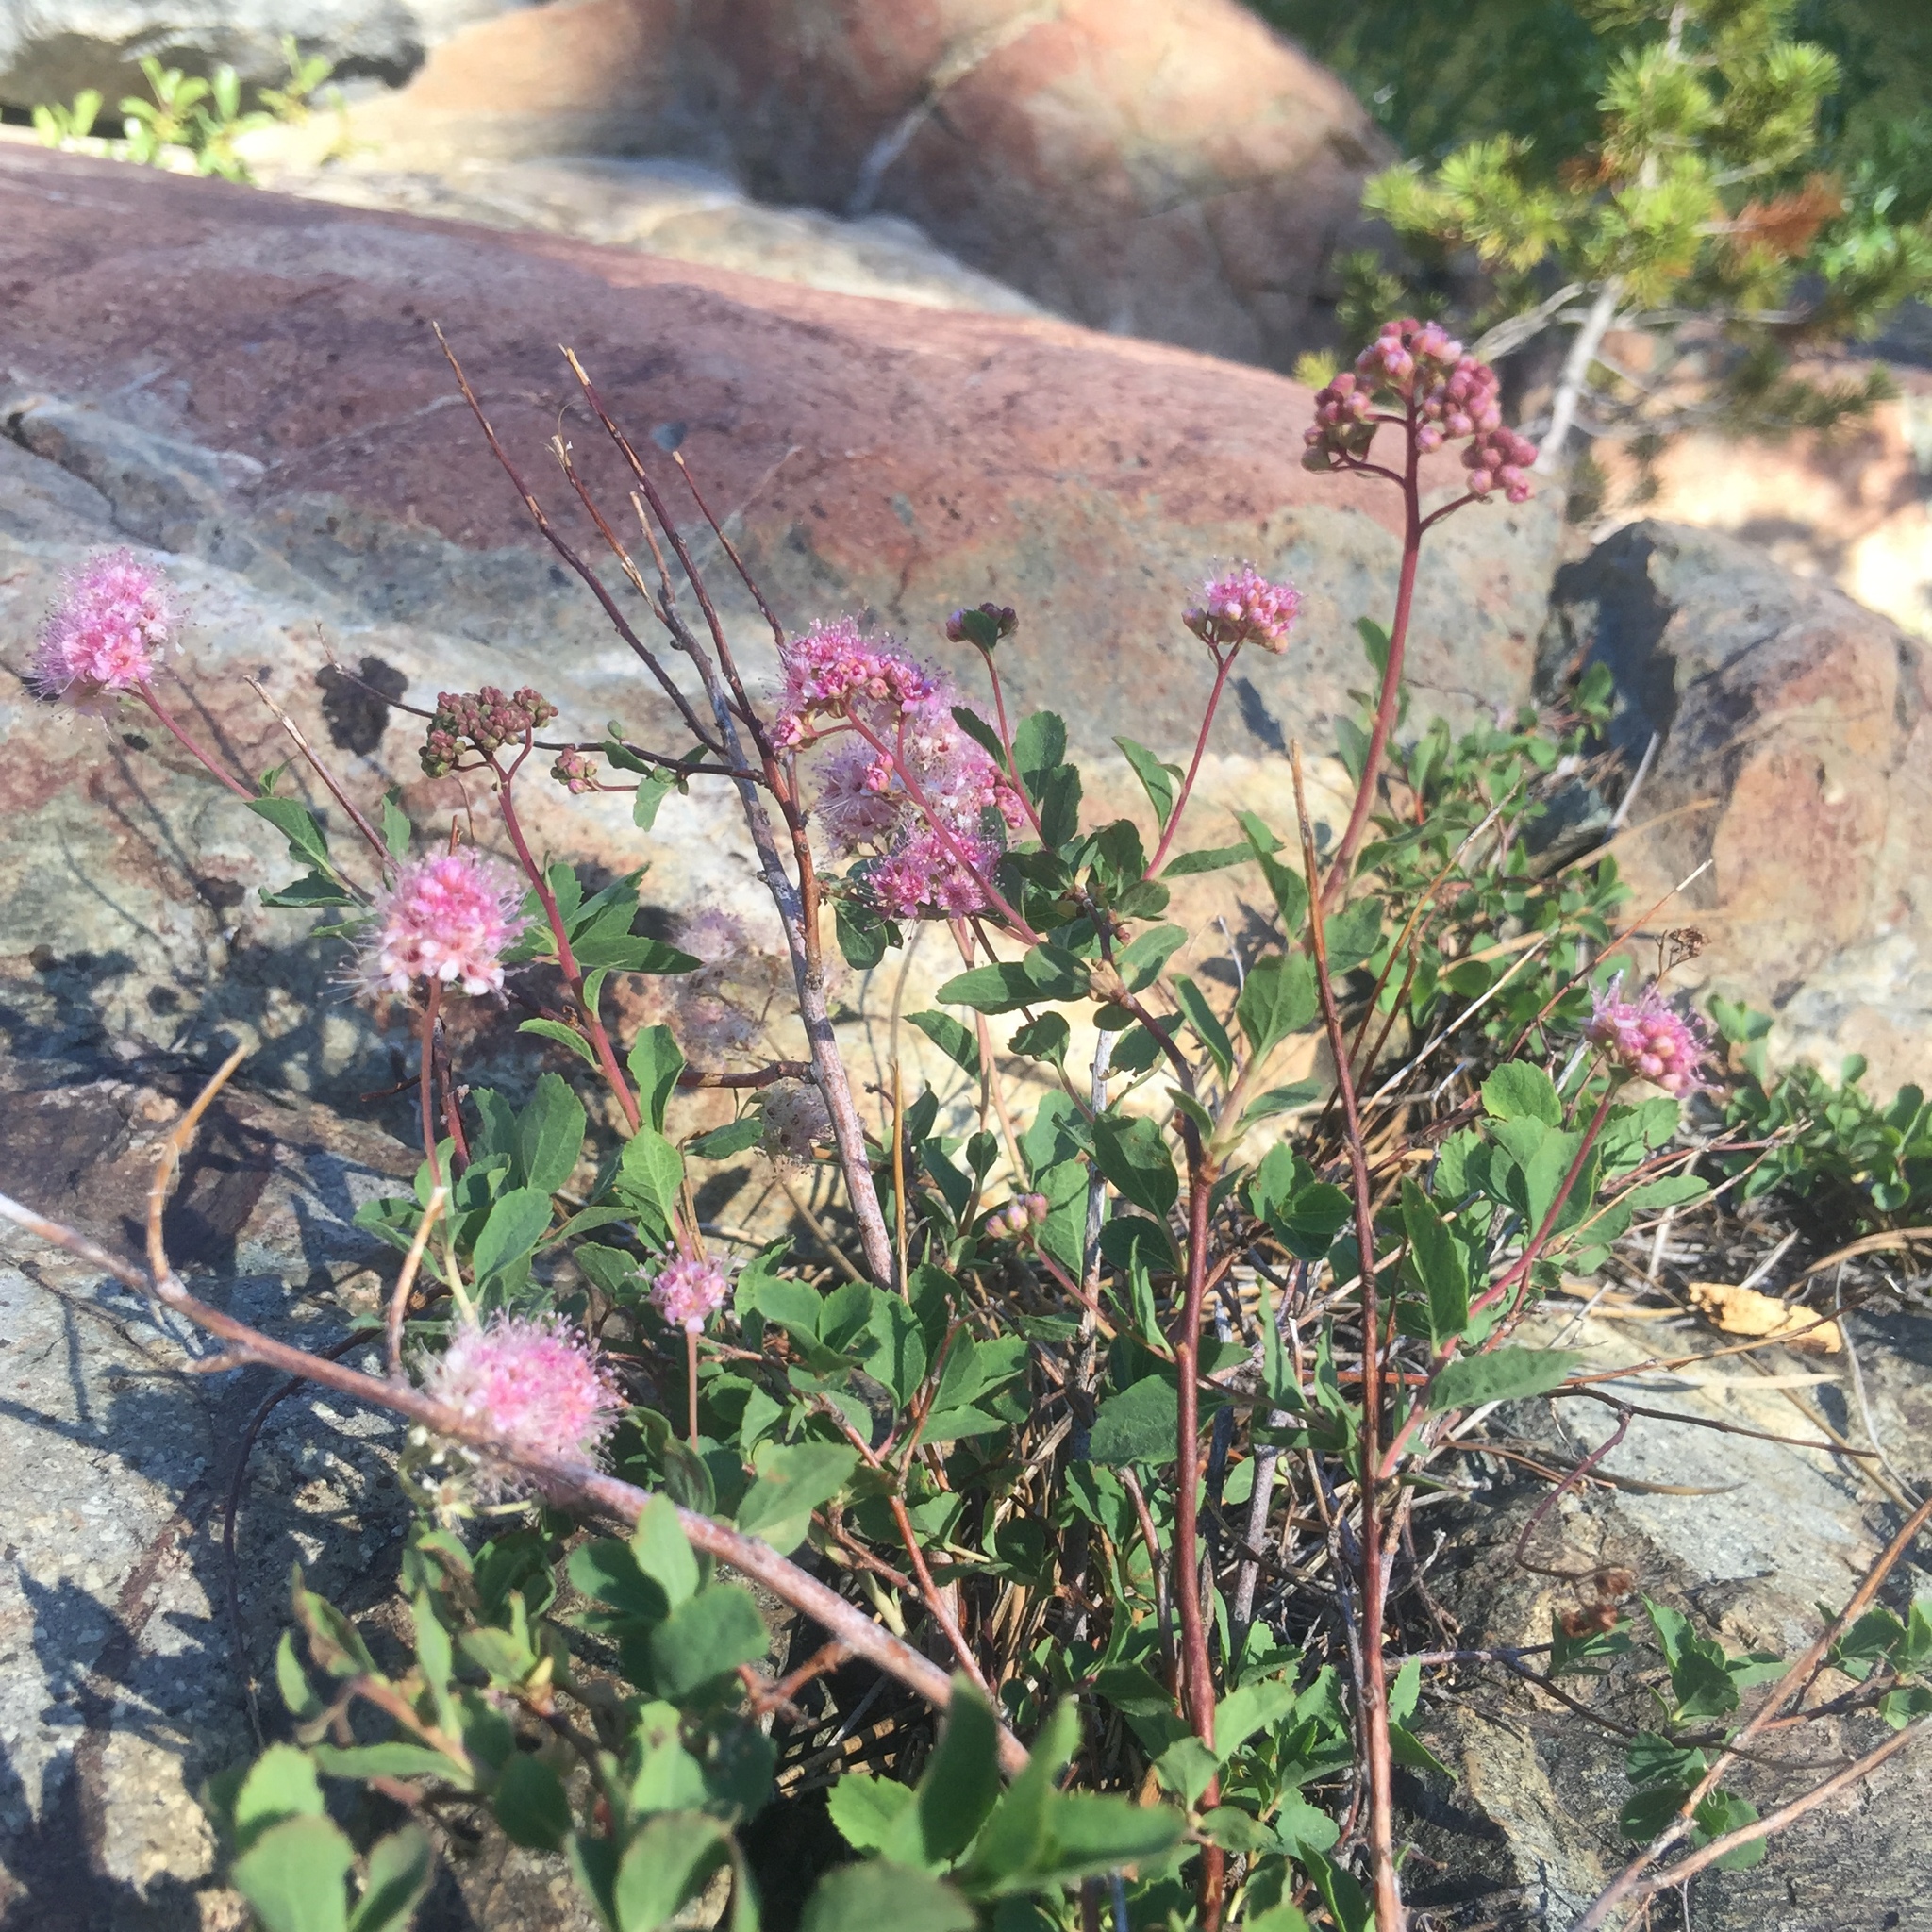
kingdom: Plantae
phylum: Tracheophyta
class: Magnoliopsida
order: Rosales
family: Rosaceae
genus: Spiraea
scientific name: Spiraea splendens
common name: Subalpine meadowsweet
